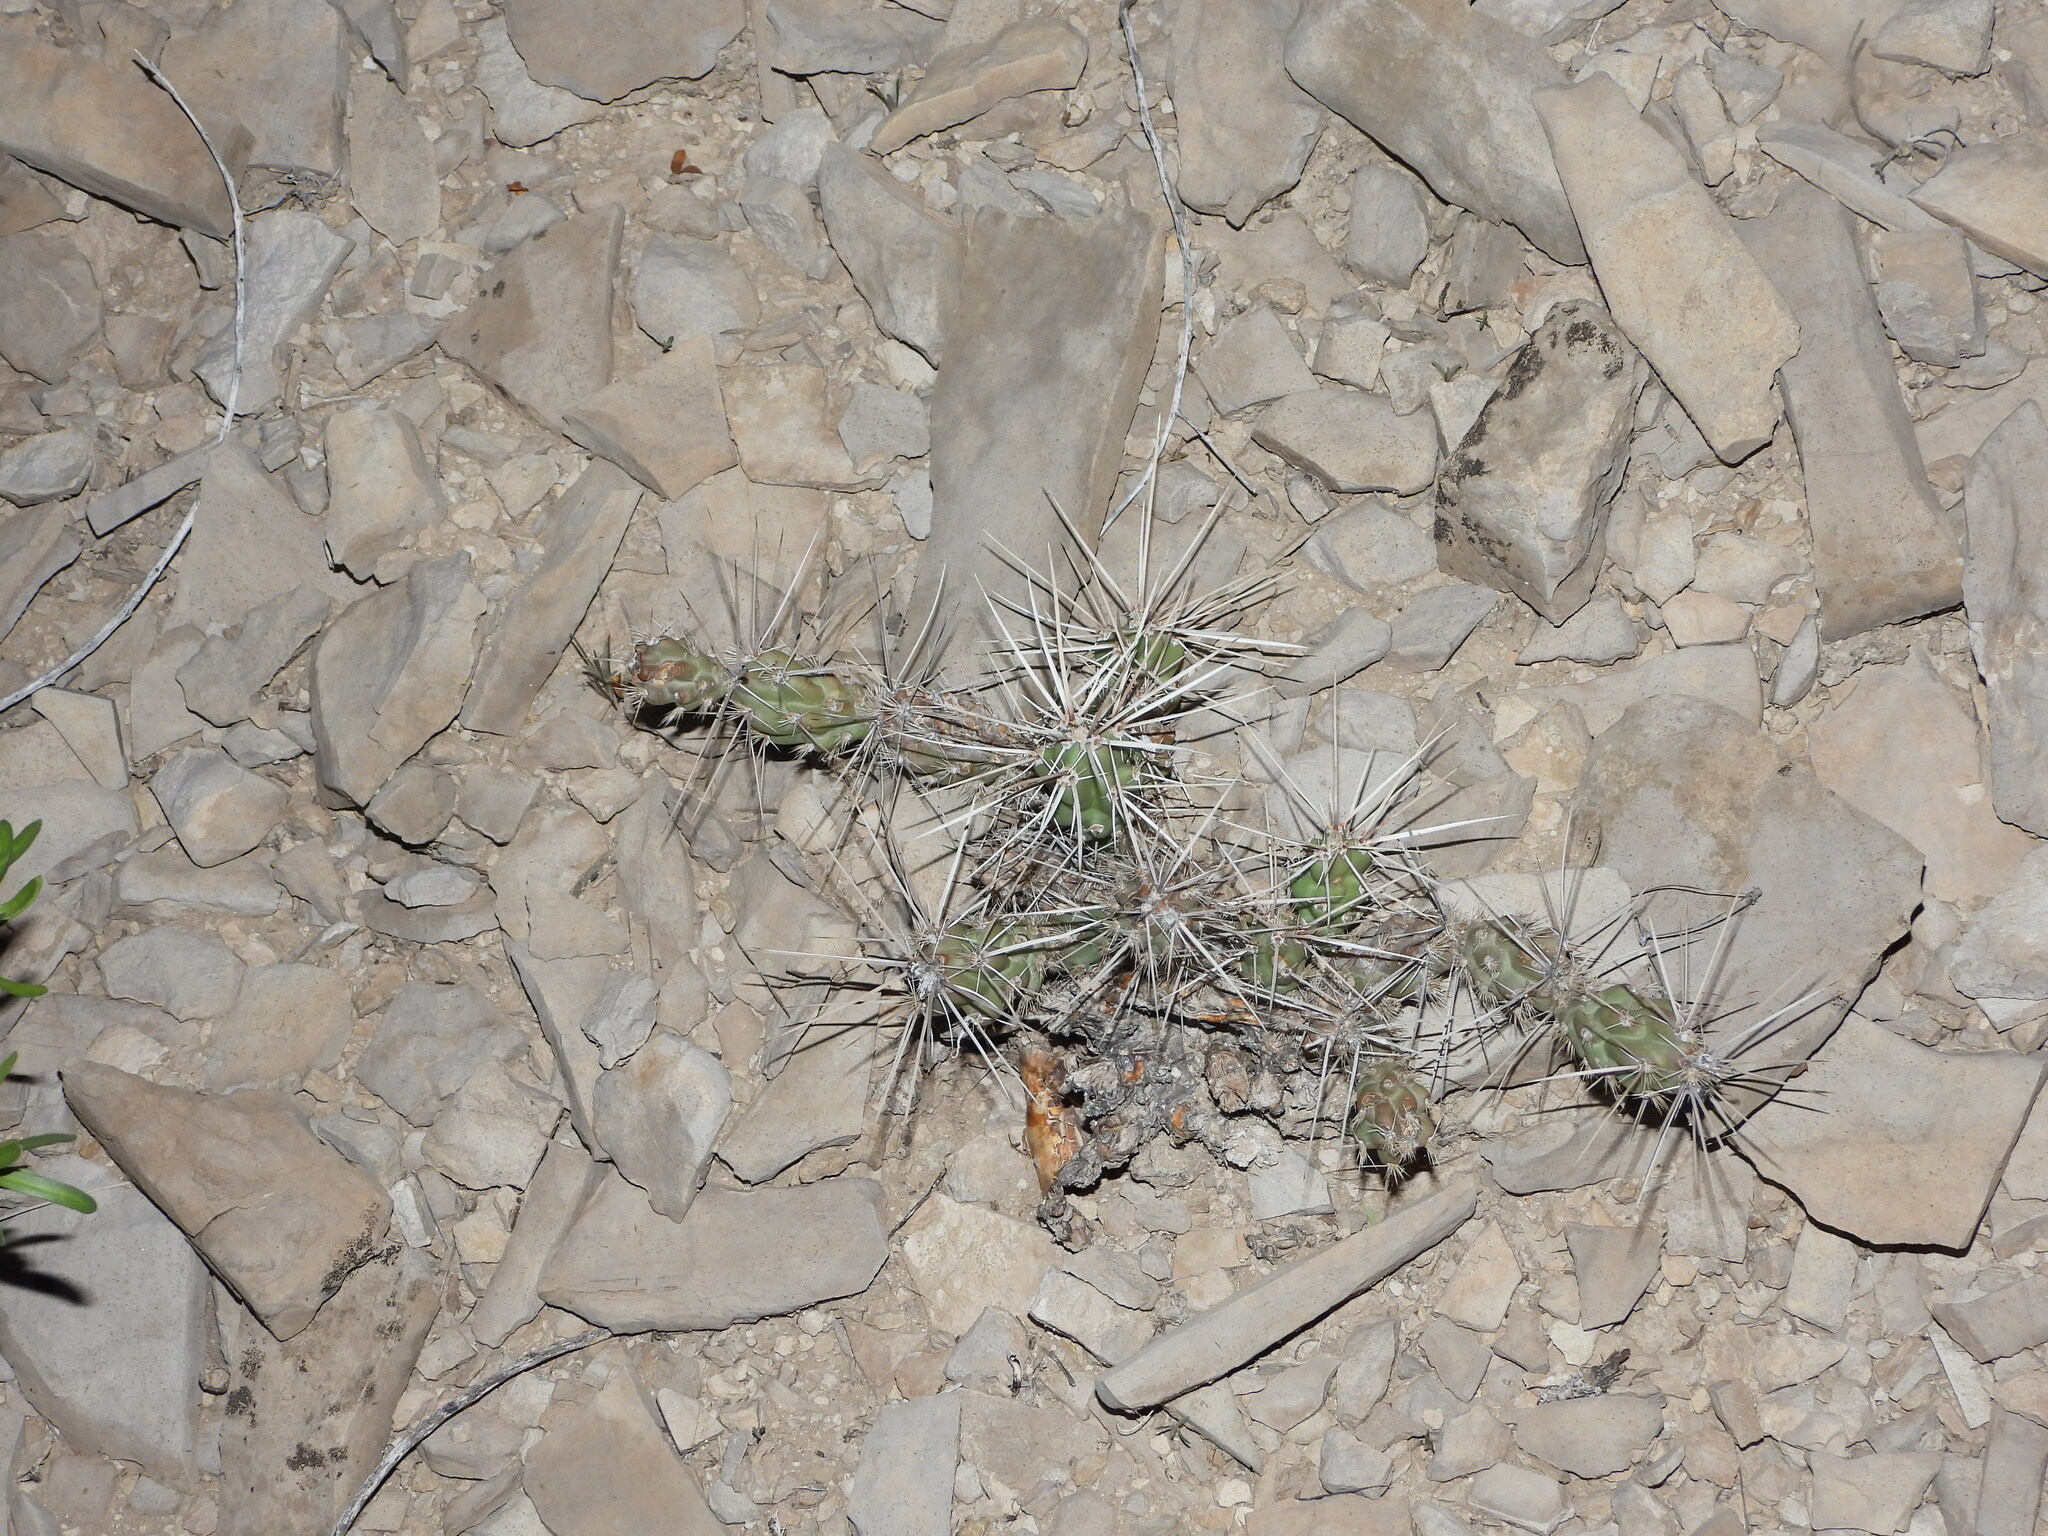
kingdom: Plantae
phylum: Tracheophyta
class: Magnoliopsida
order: Caryophyllales
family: Cactaceae
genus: Grusonia
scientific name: Grusonia aggeria
